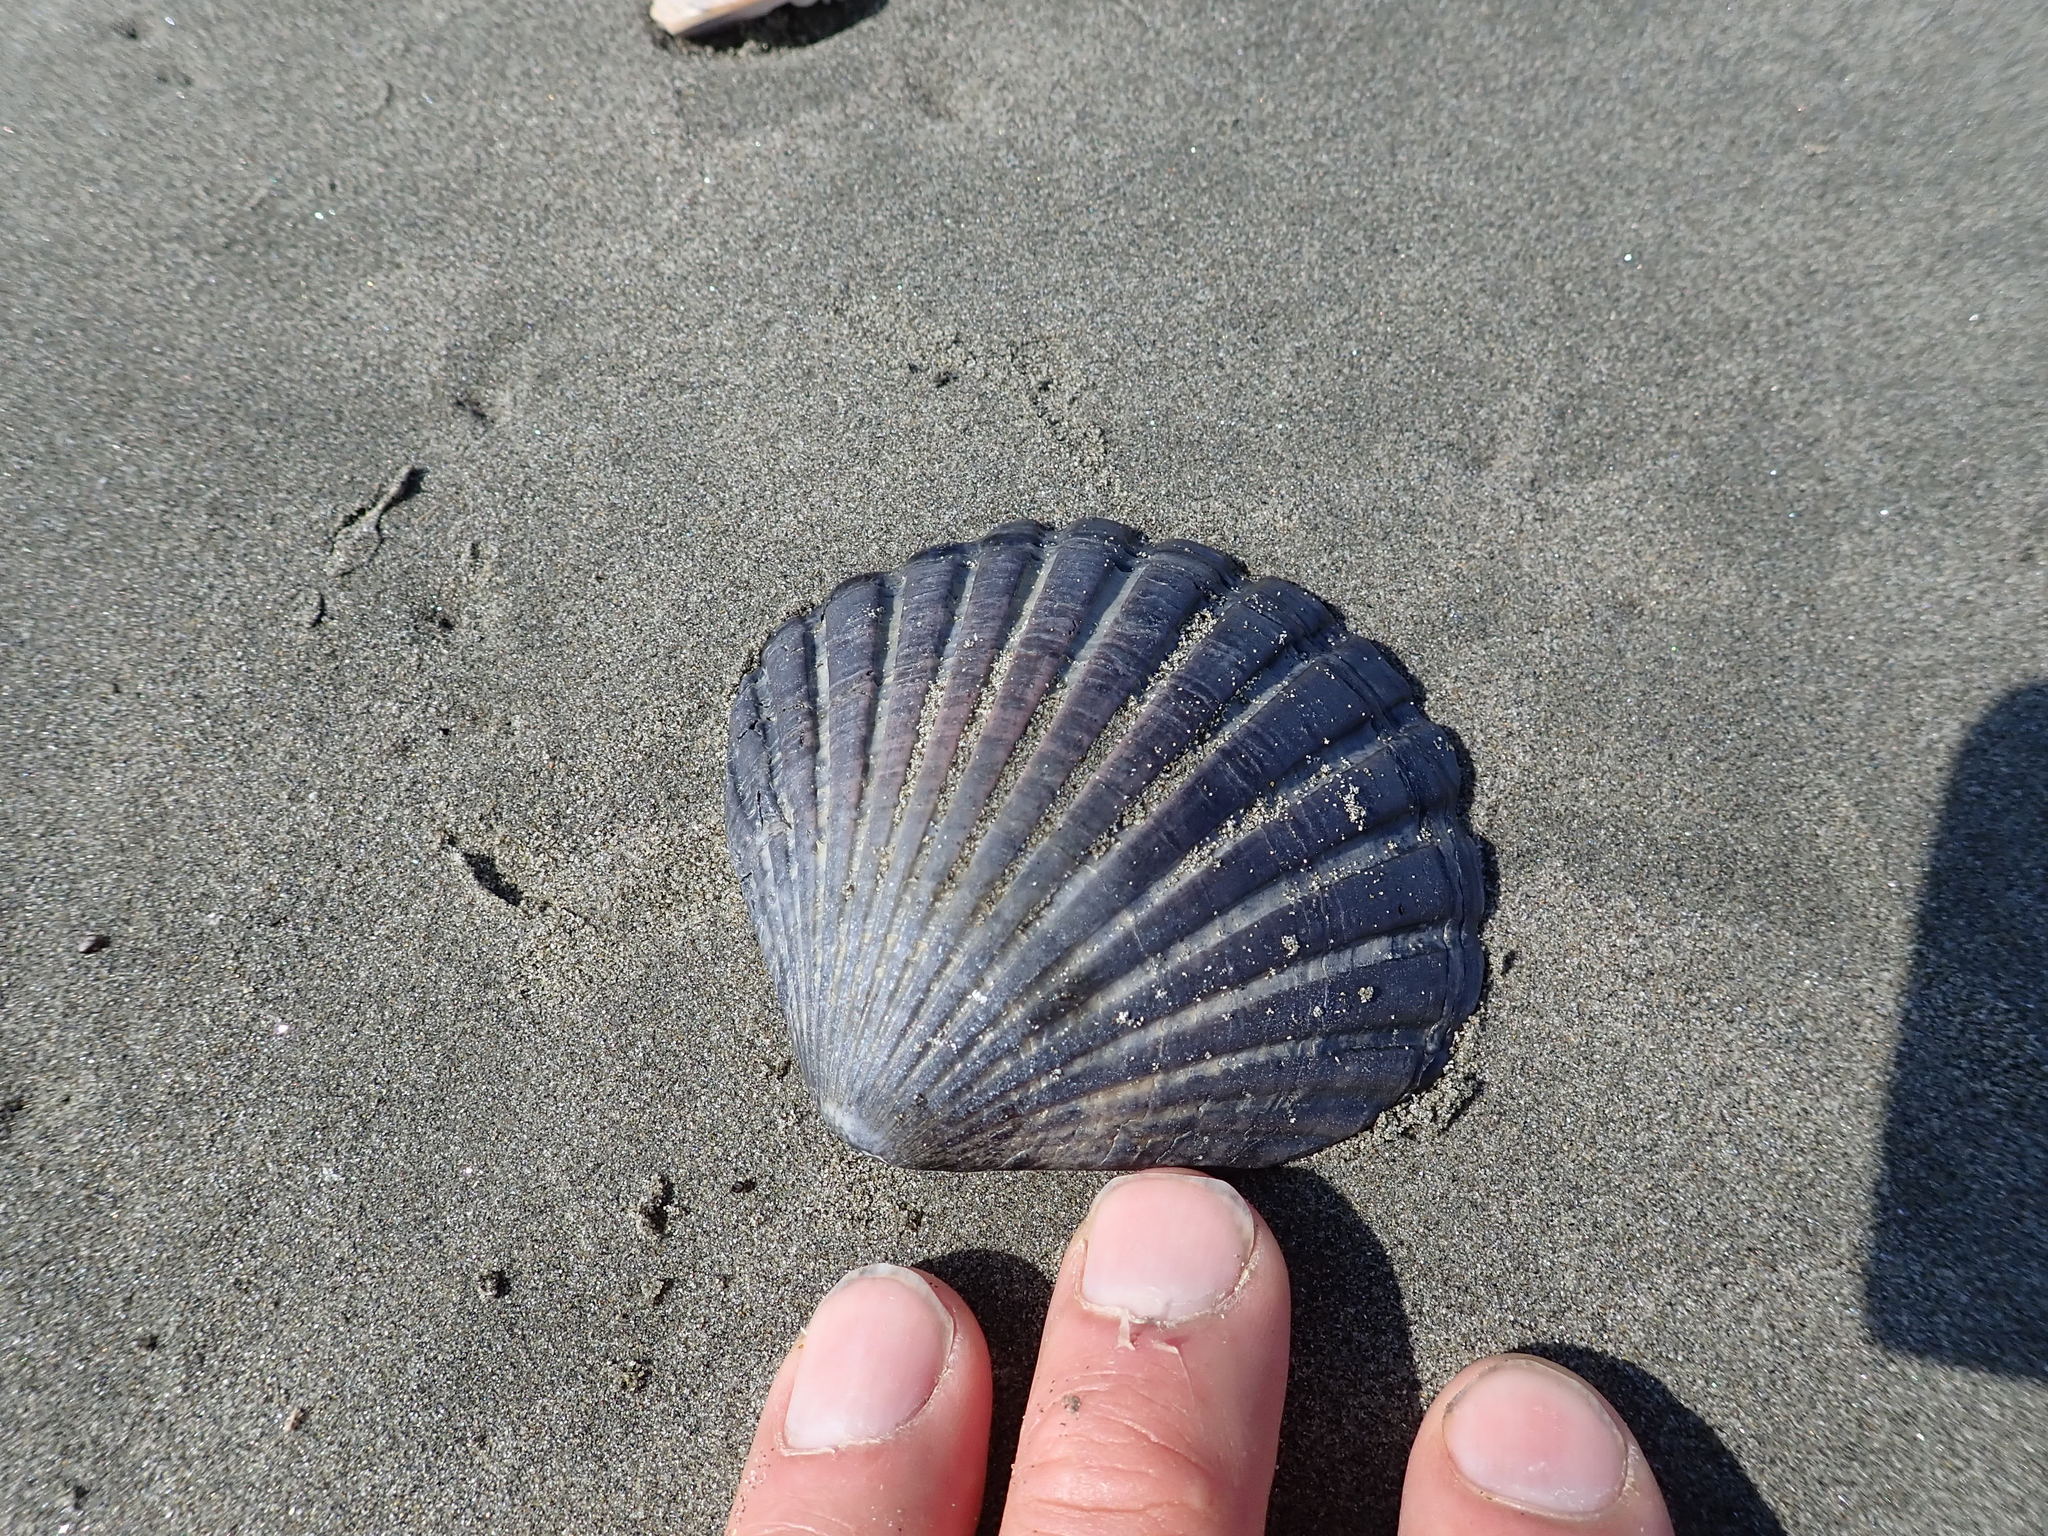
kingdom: Animalia
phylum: Mollusca
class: Bivalvia
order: Pectinida
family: Pectinidae
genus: Pecten
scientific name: Pecten novaezelandiae
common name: New zealand scallop
